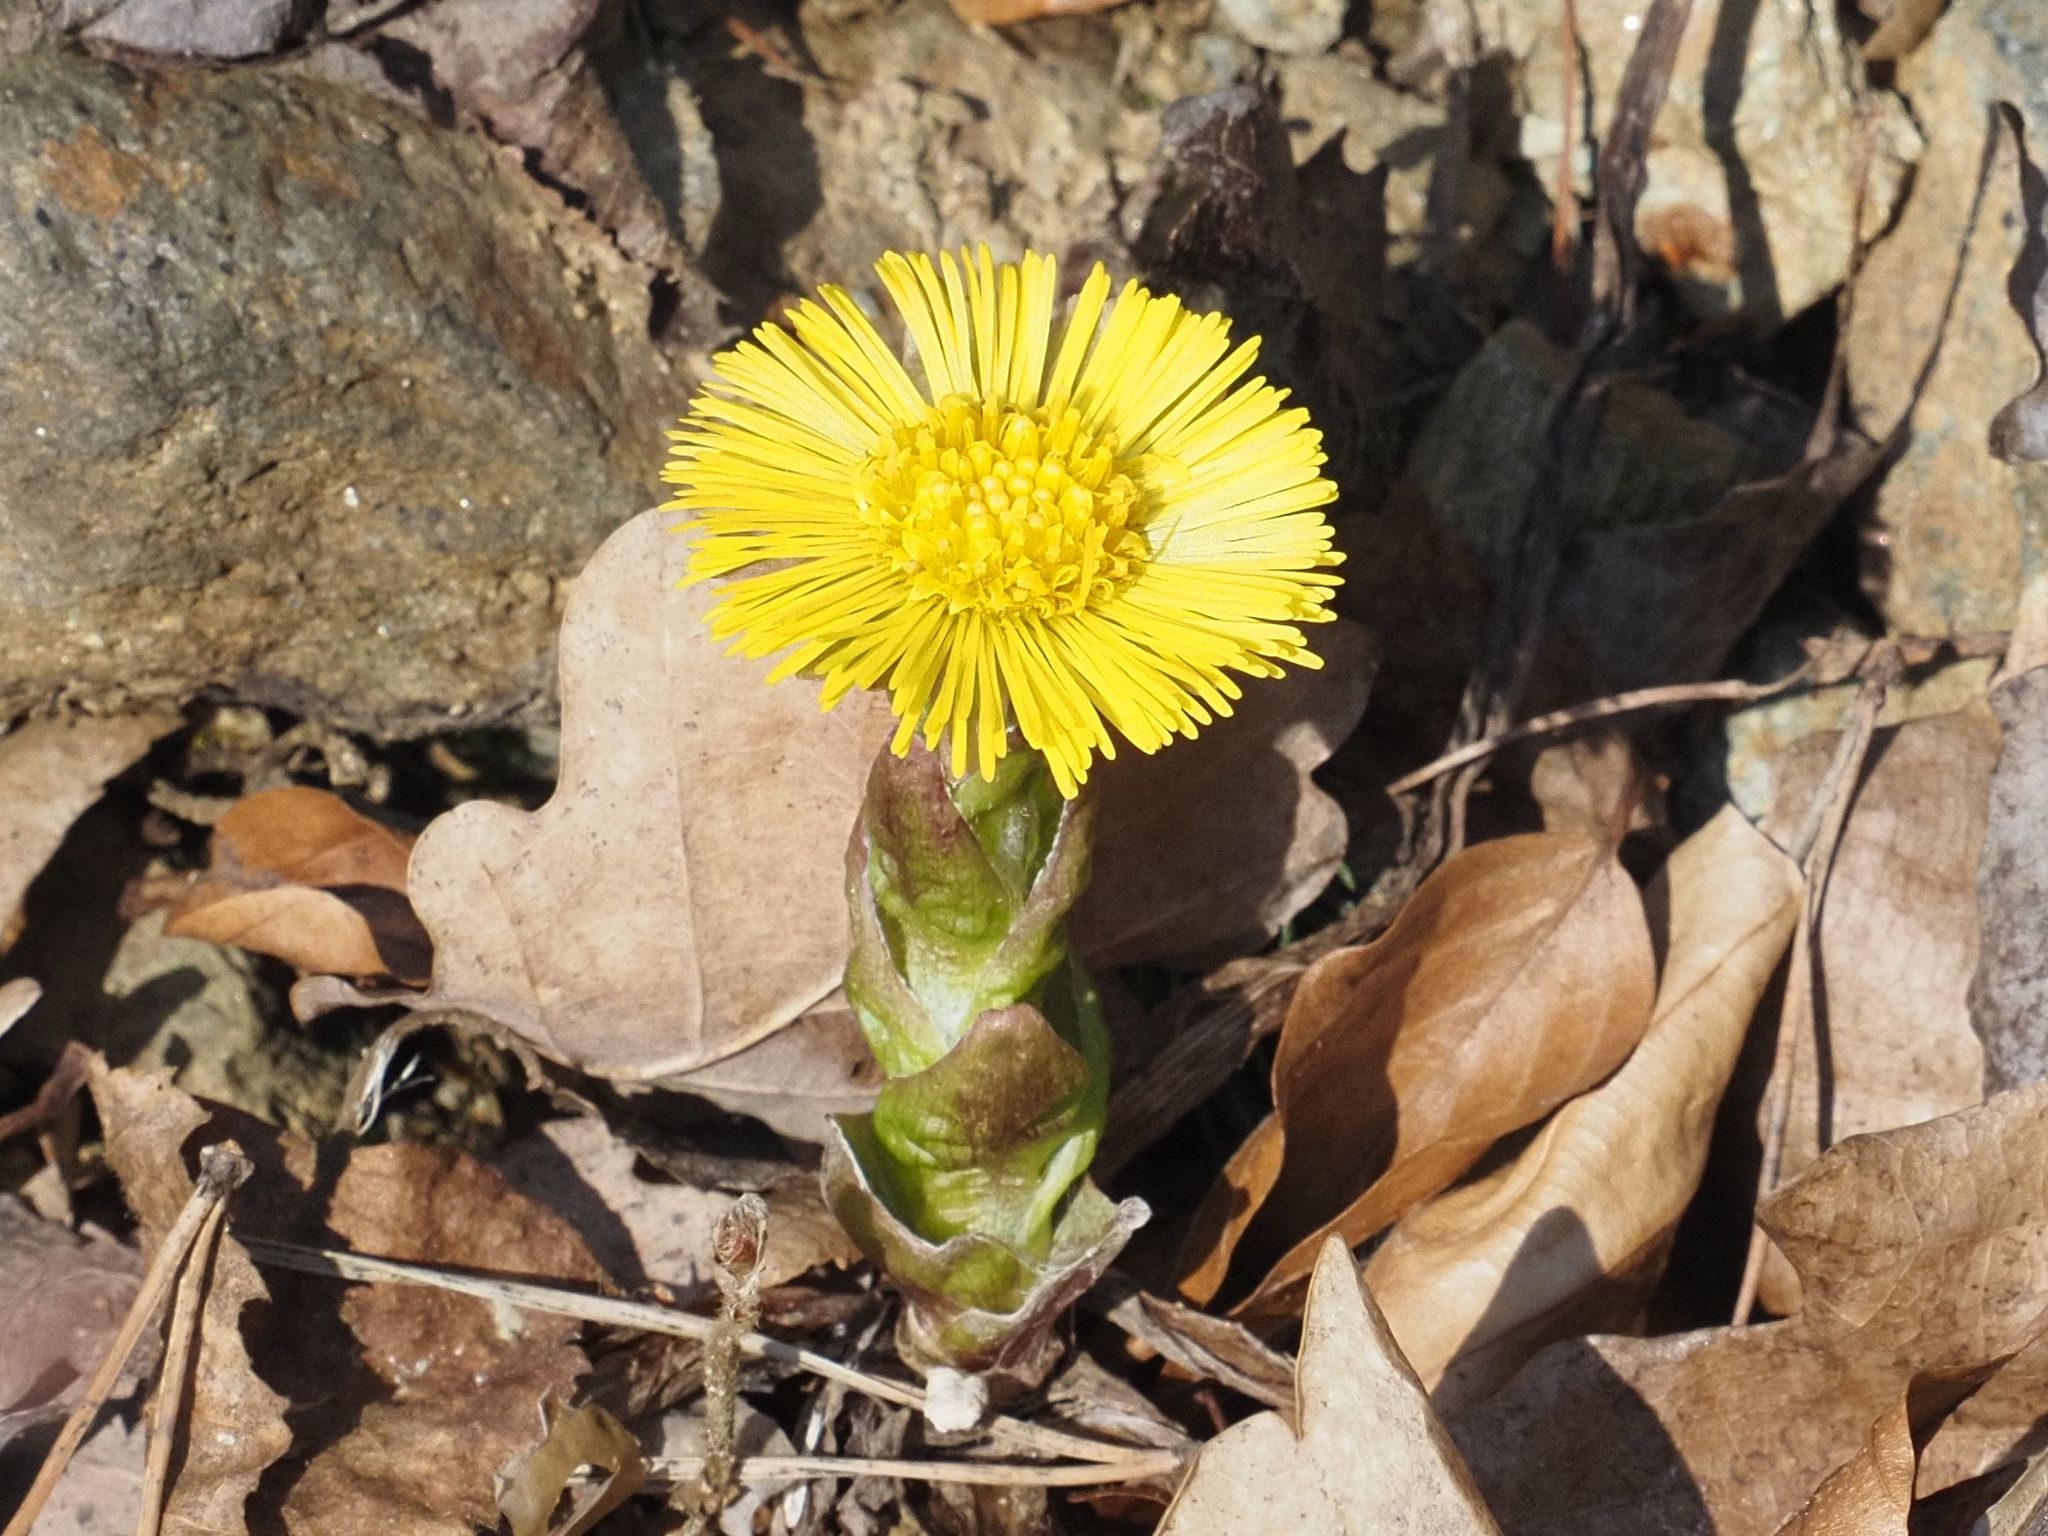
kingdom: Plantae
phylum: Tracheophyta
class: Magnoliopsida
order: Asterales
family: Asteraceae
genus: Tussilago
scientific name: Tussilago farfara
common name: Coltsfoot
